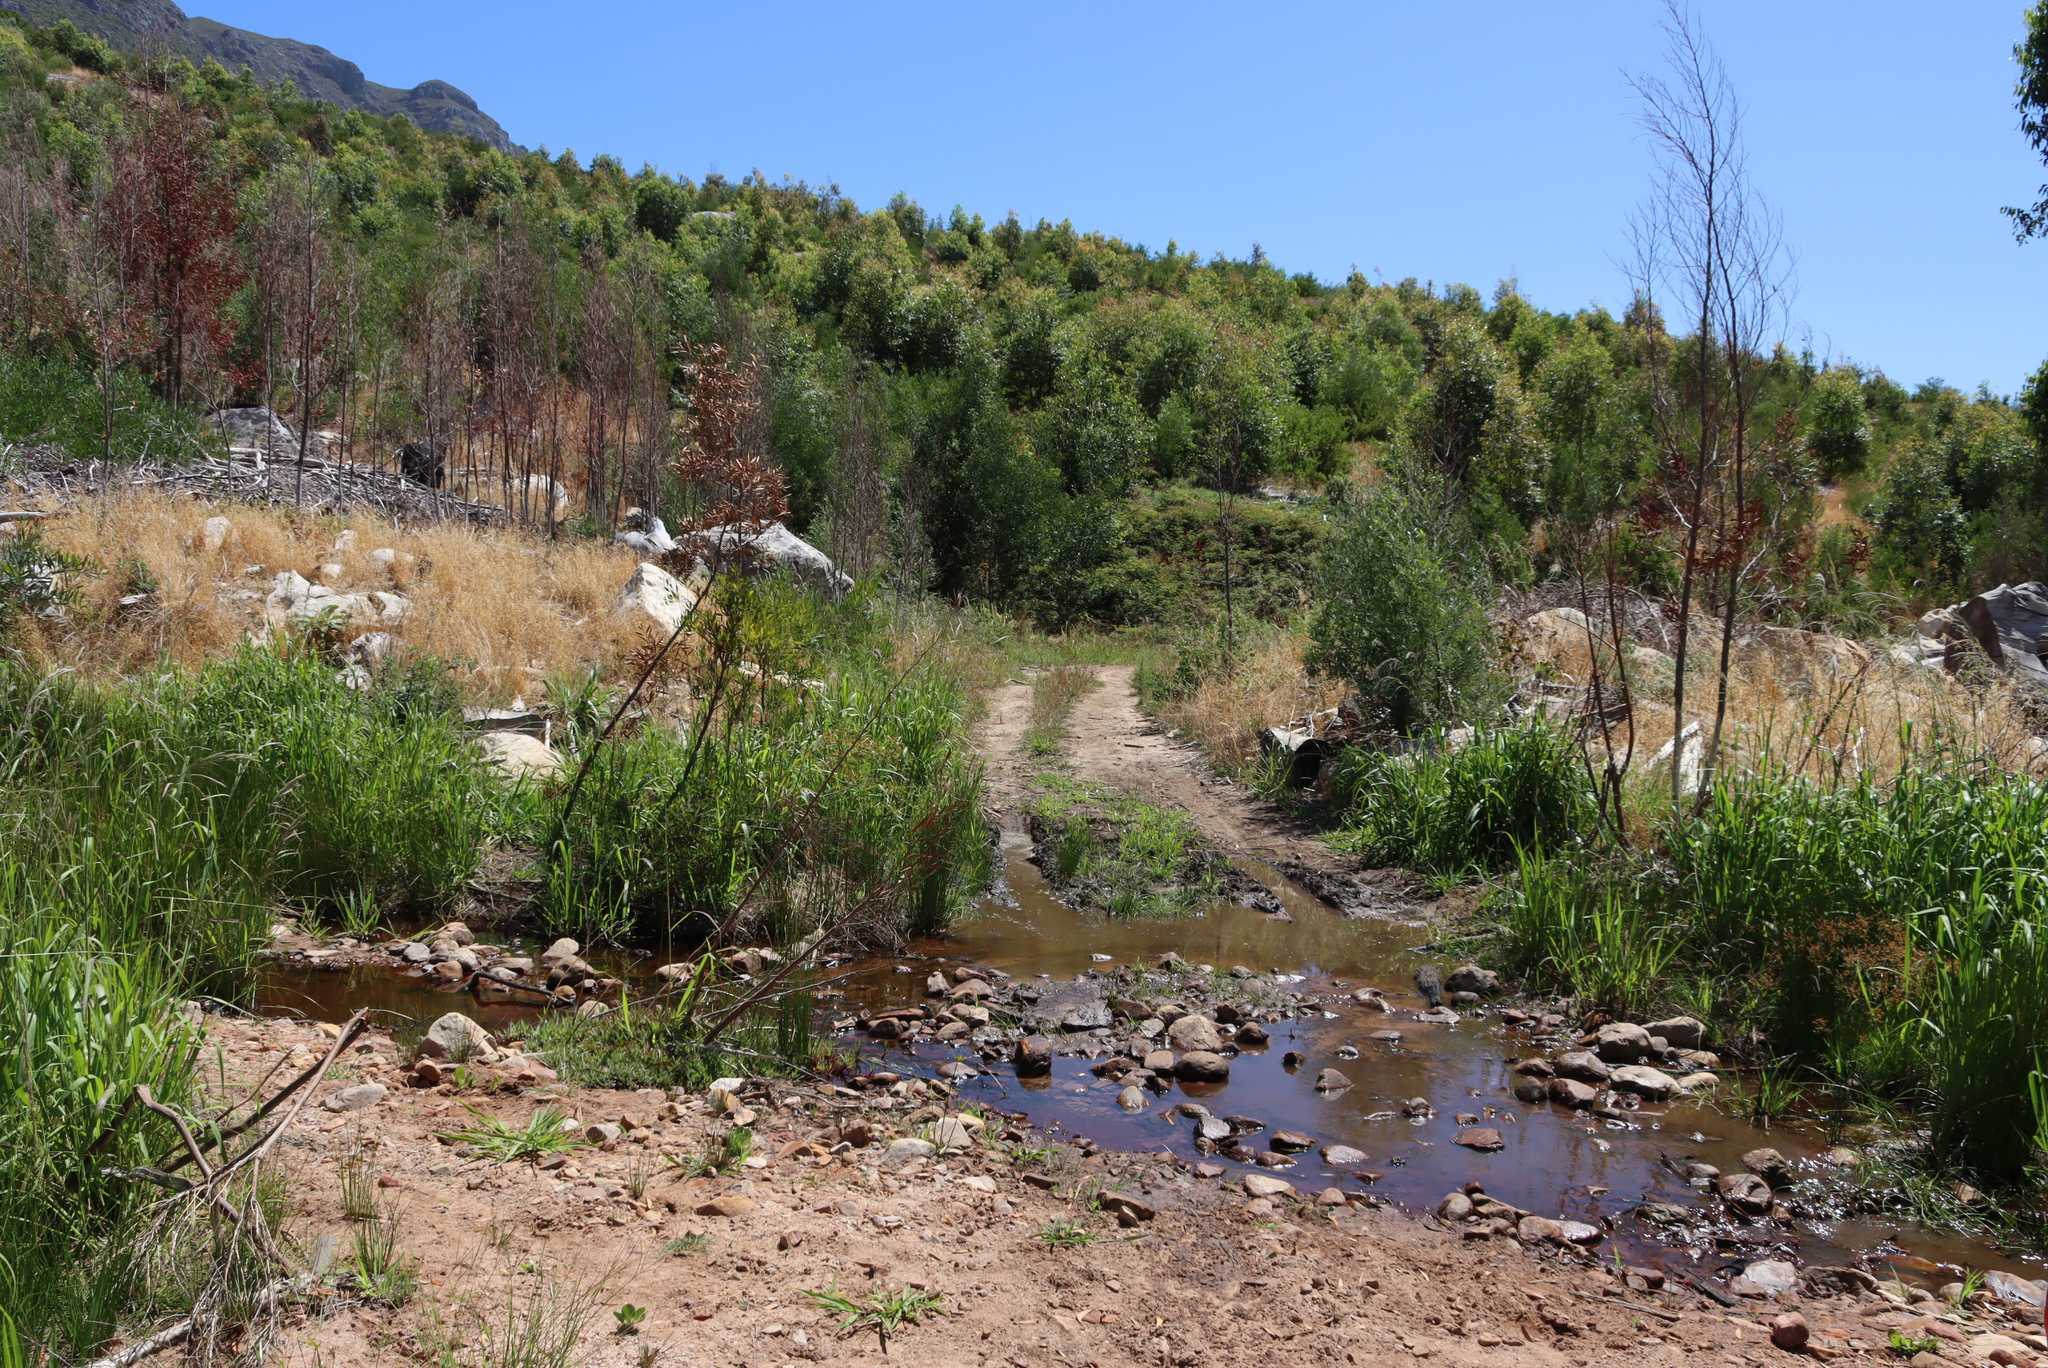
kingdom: Plantae
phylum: Tracheophyta
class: Magnoliopsida
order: Fabales
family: Fabaceae
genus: Acacia
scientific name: Acacia melanoxylon
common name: Blackwood
